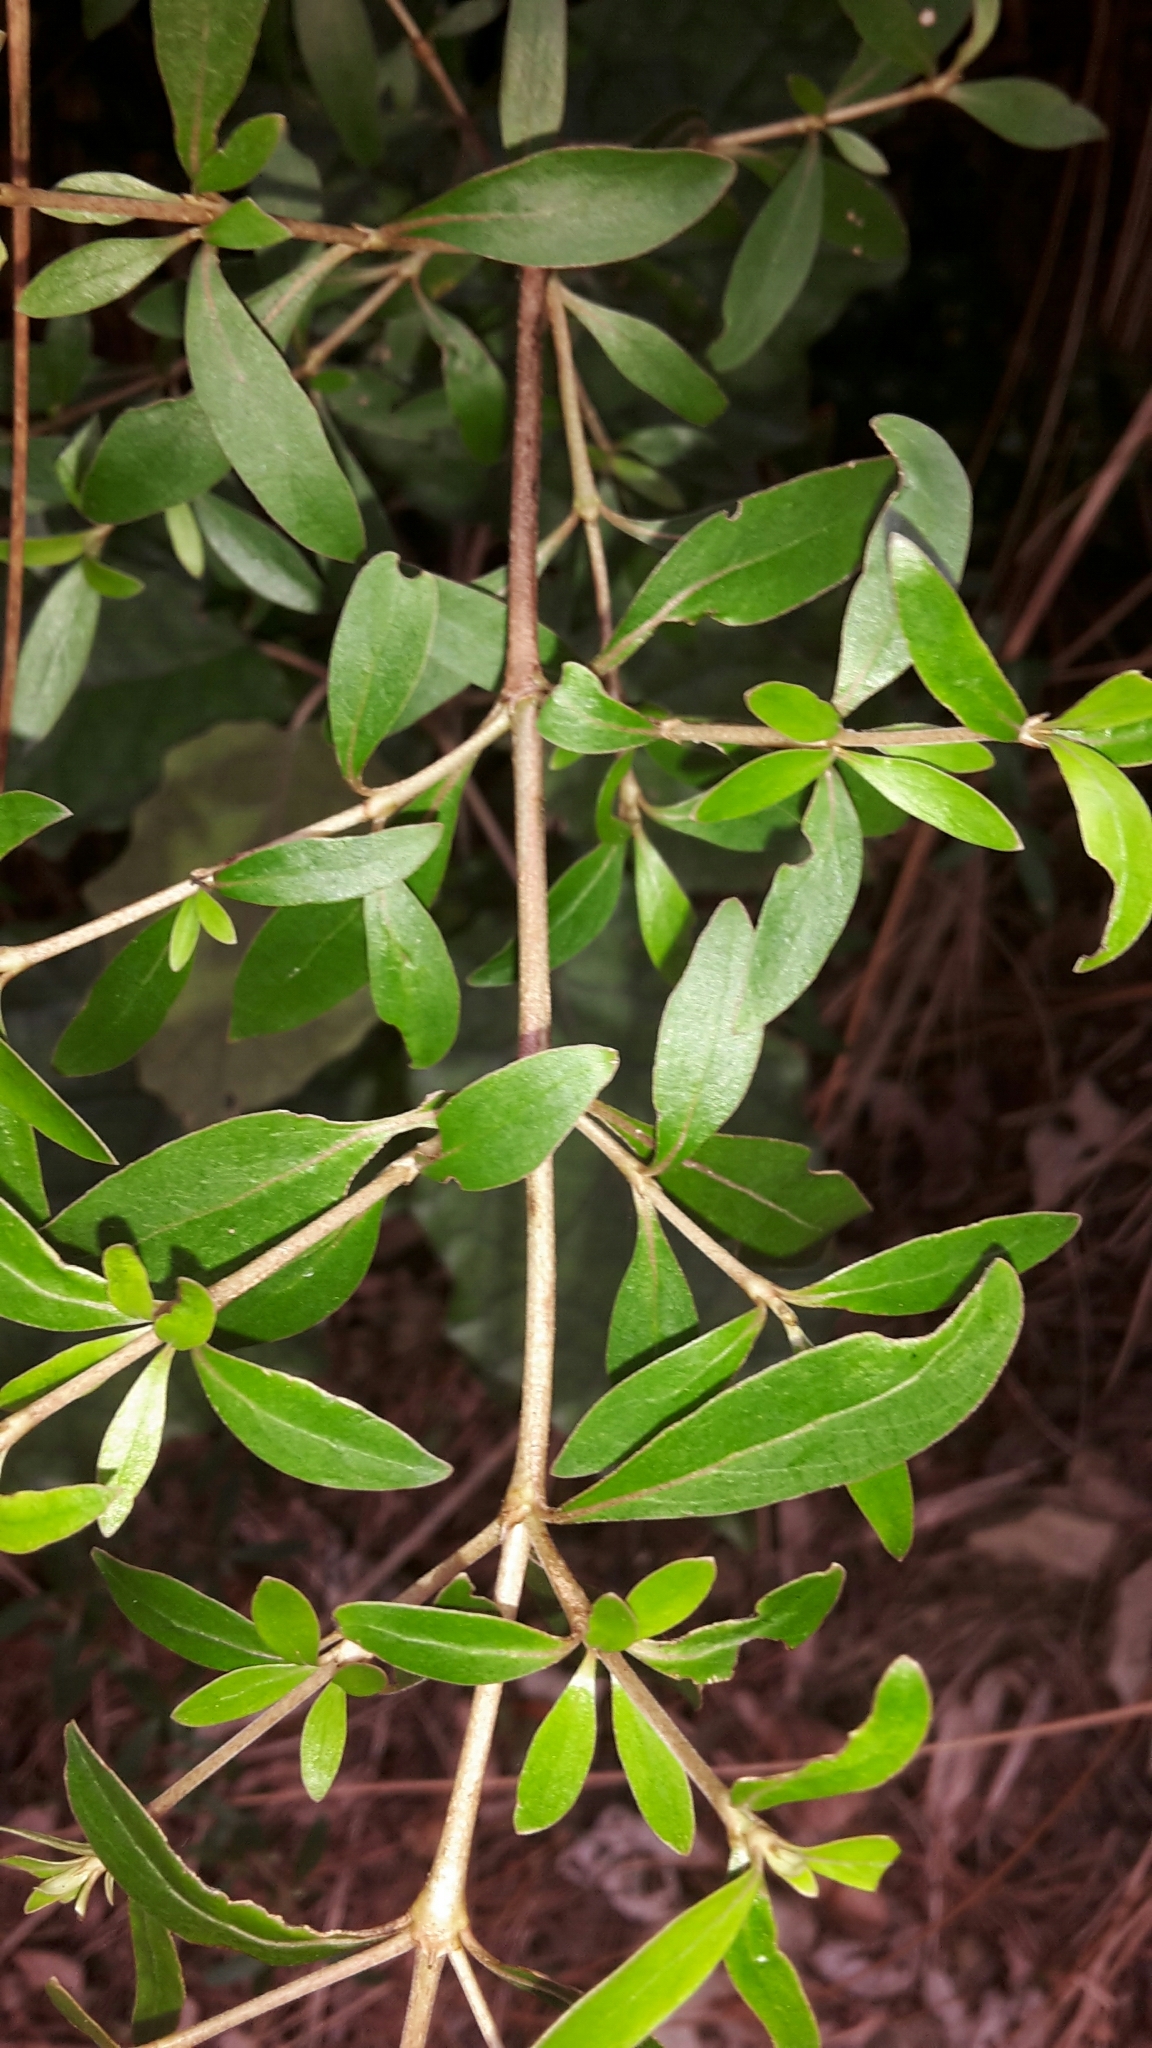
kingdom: Plantae
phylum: Tracheophyta
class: Magnoliopsida
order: Gentianales
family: Rubiaceae
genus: Coprosma
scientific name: Coprosma cunninghamii
